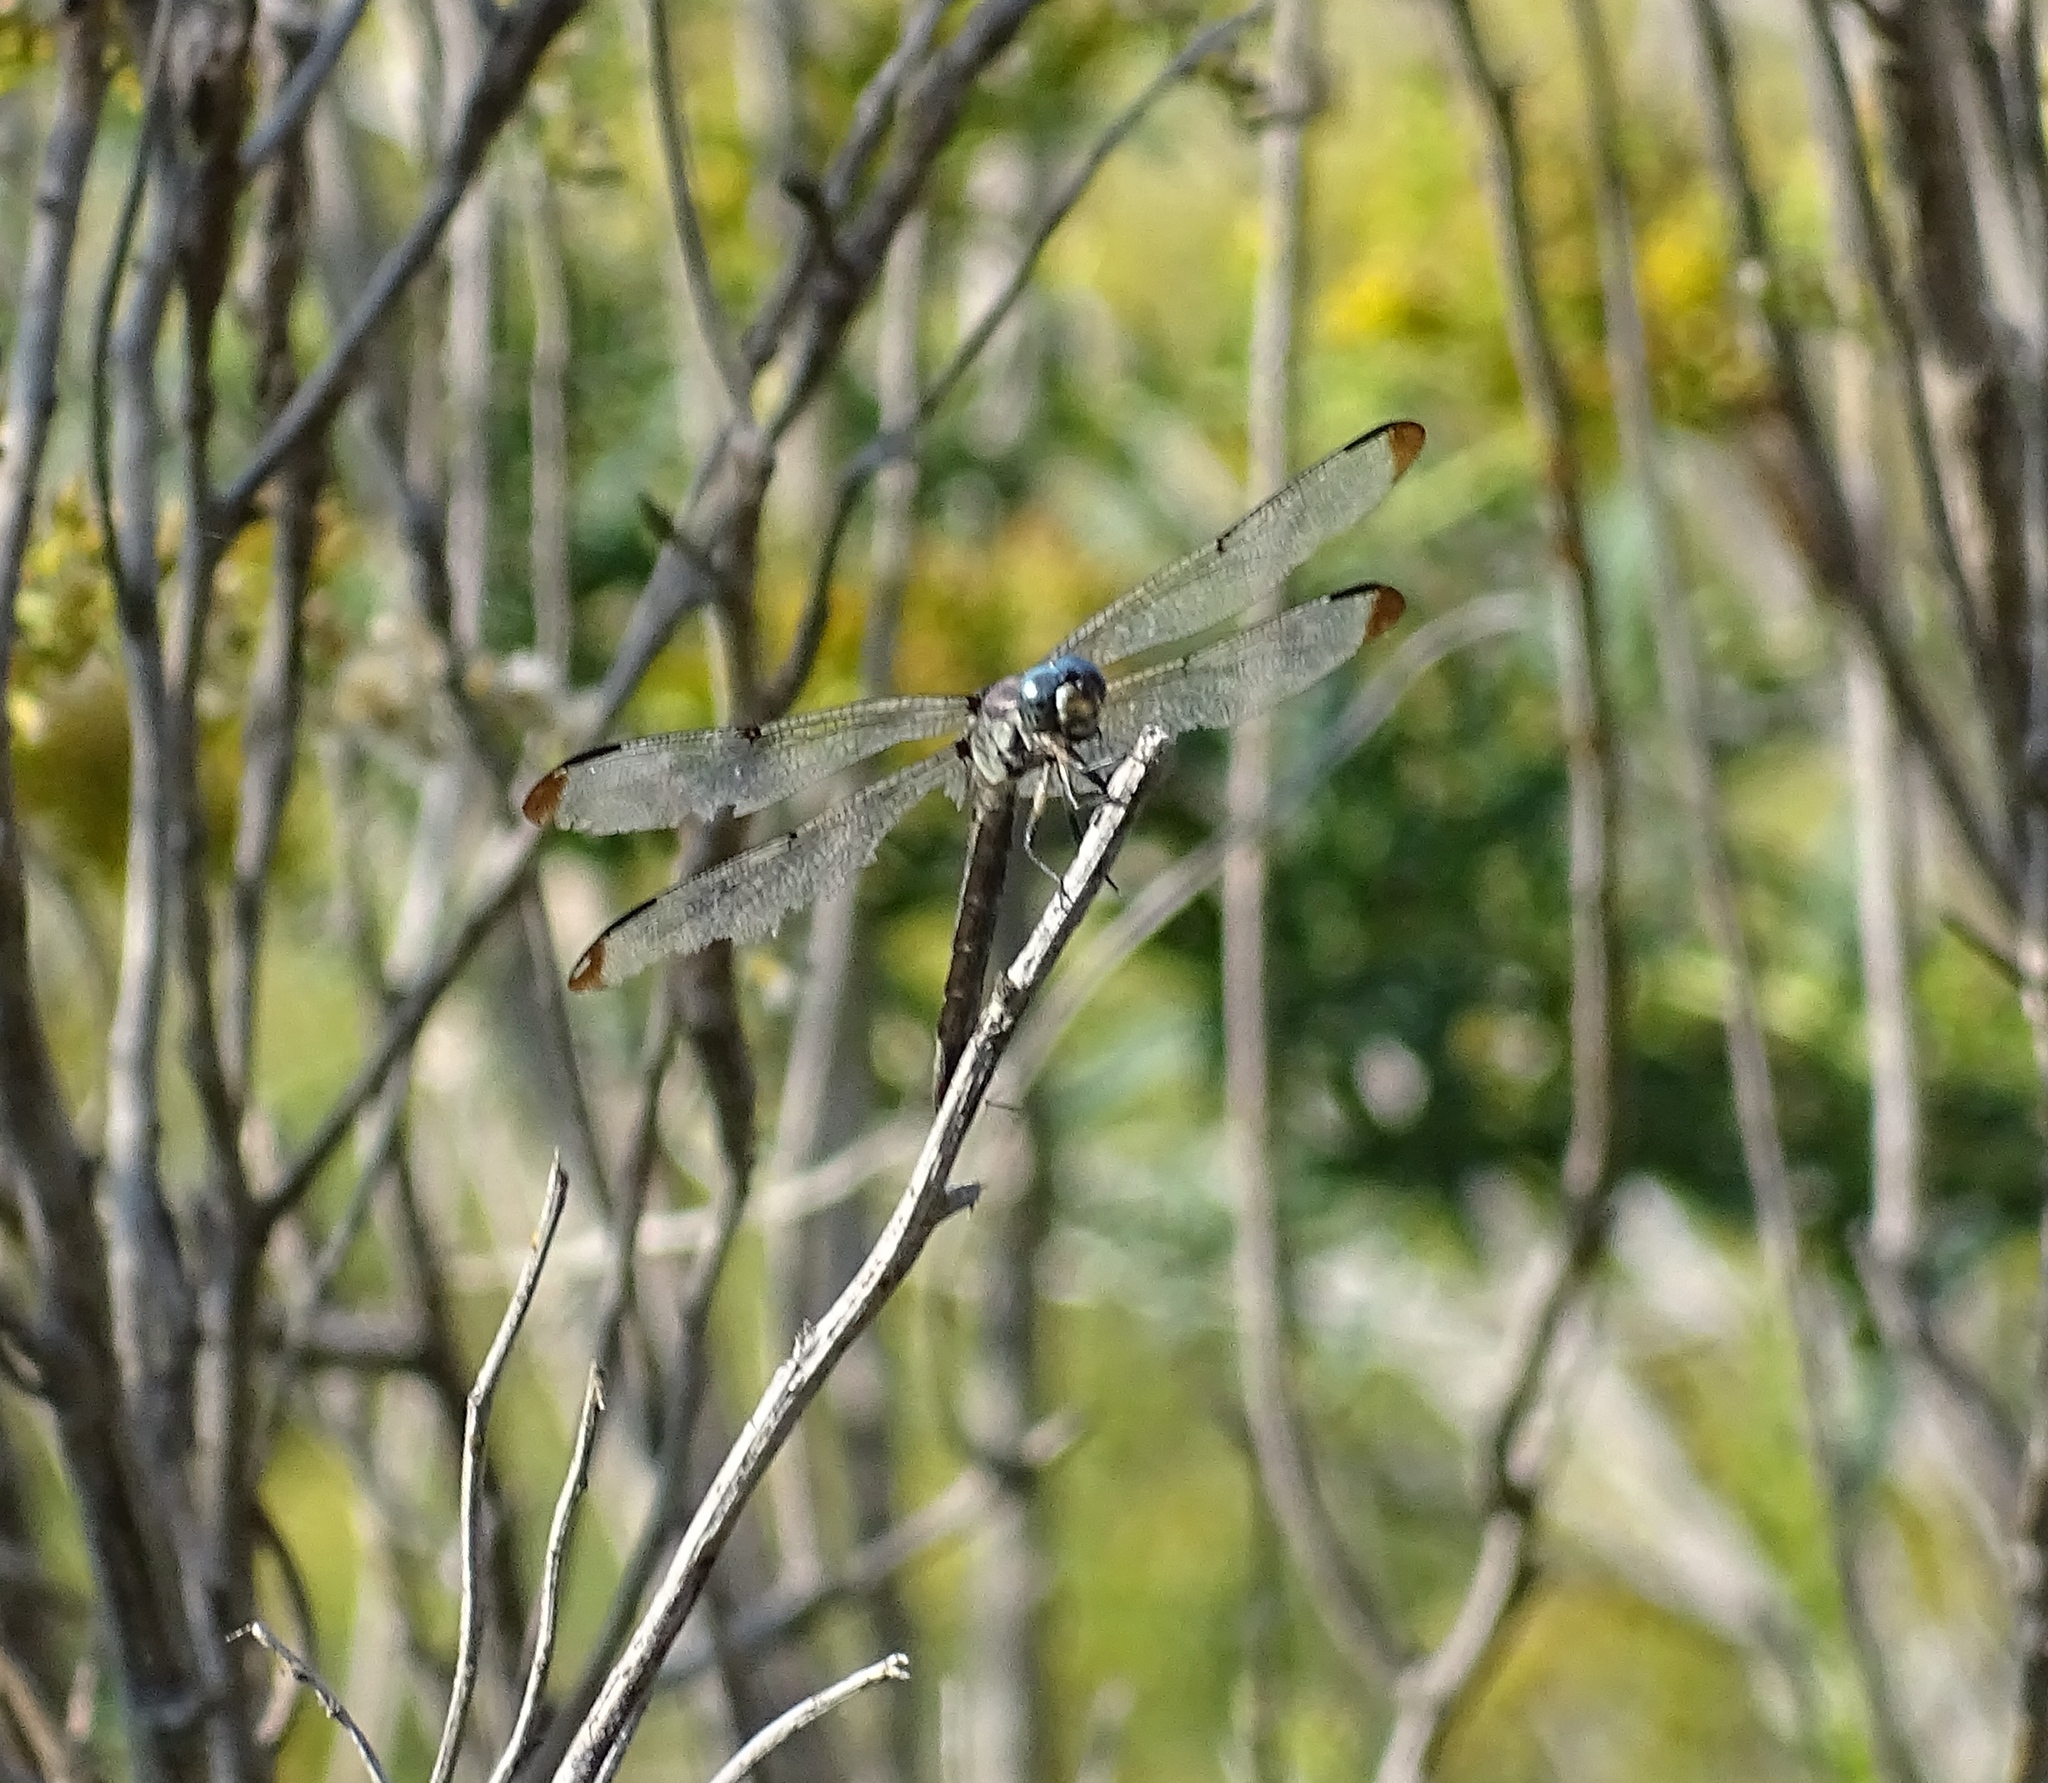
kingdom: Animalia
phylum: Arthropoda
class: Insecta
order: Odonata
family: Libellulidae
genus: Libellula
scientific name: Libellula vibrans
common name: Great blue skimmer
